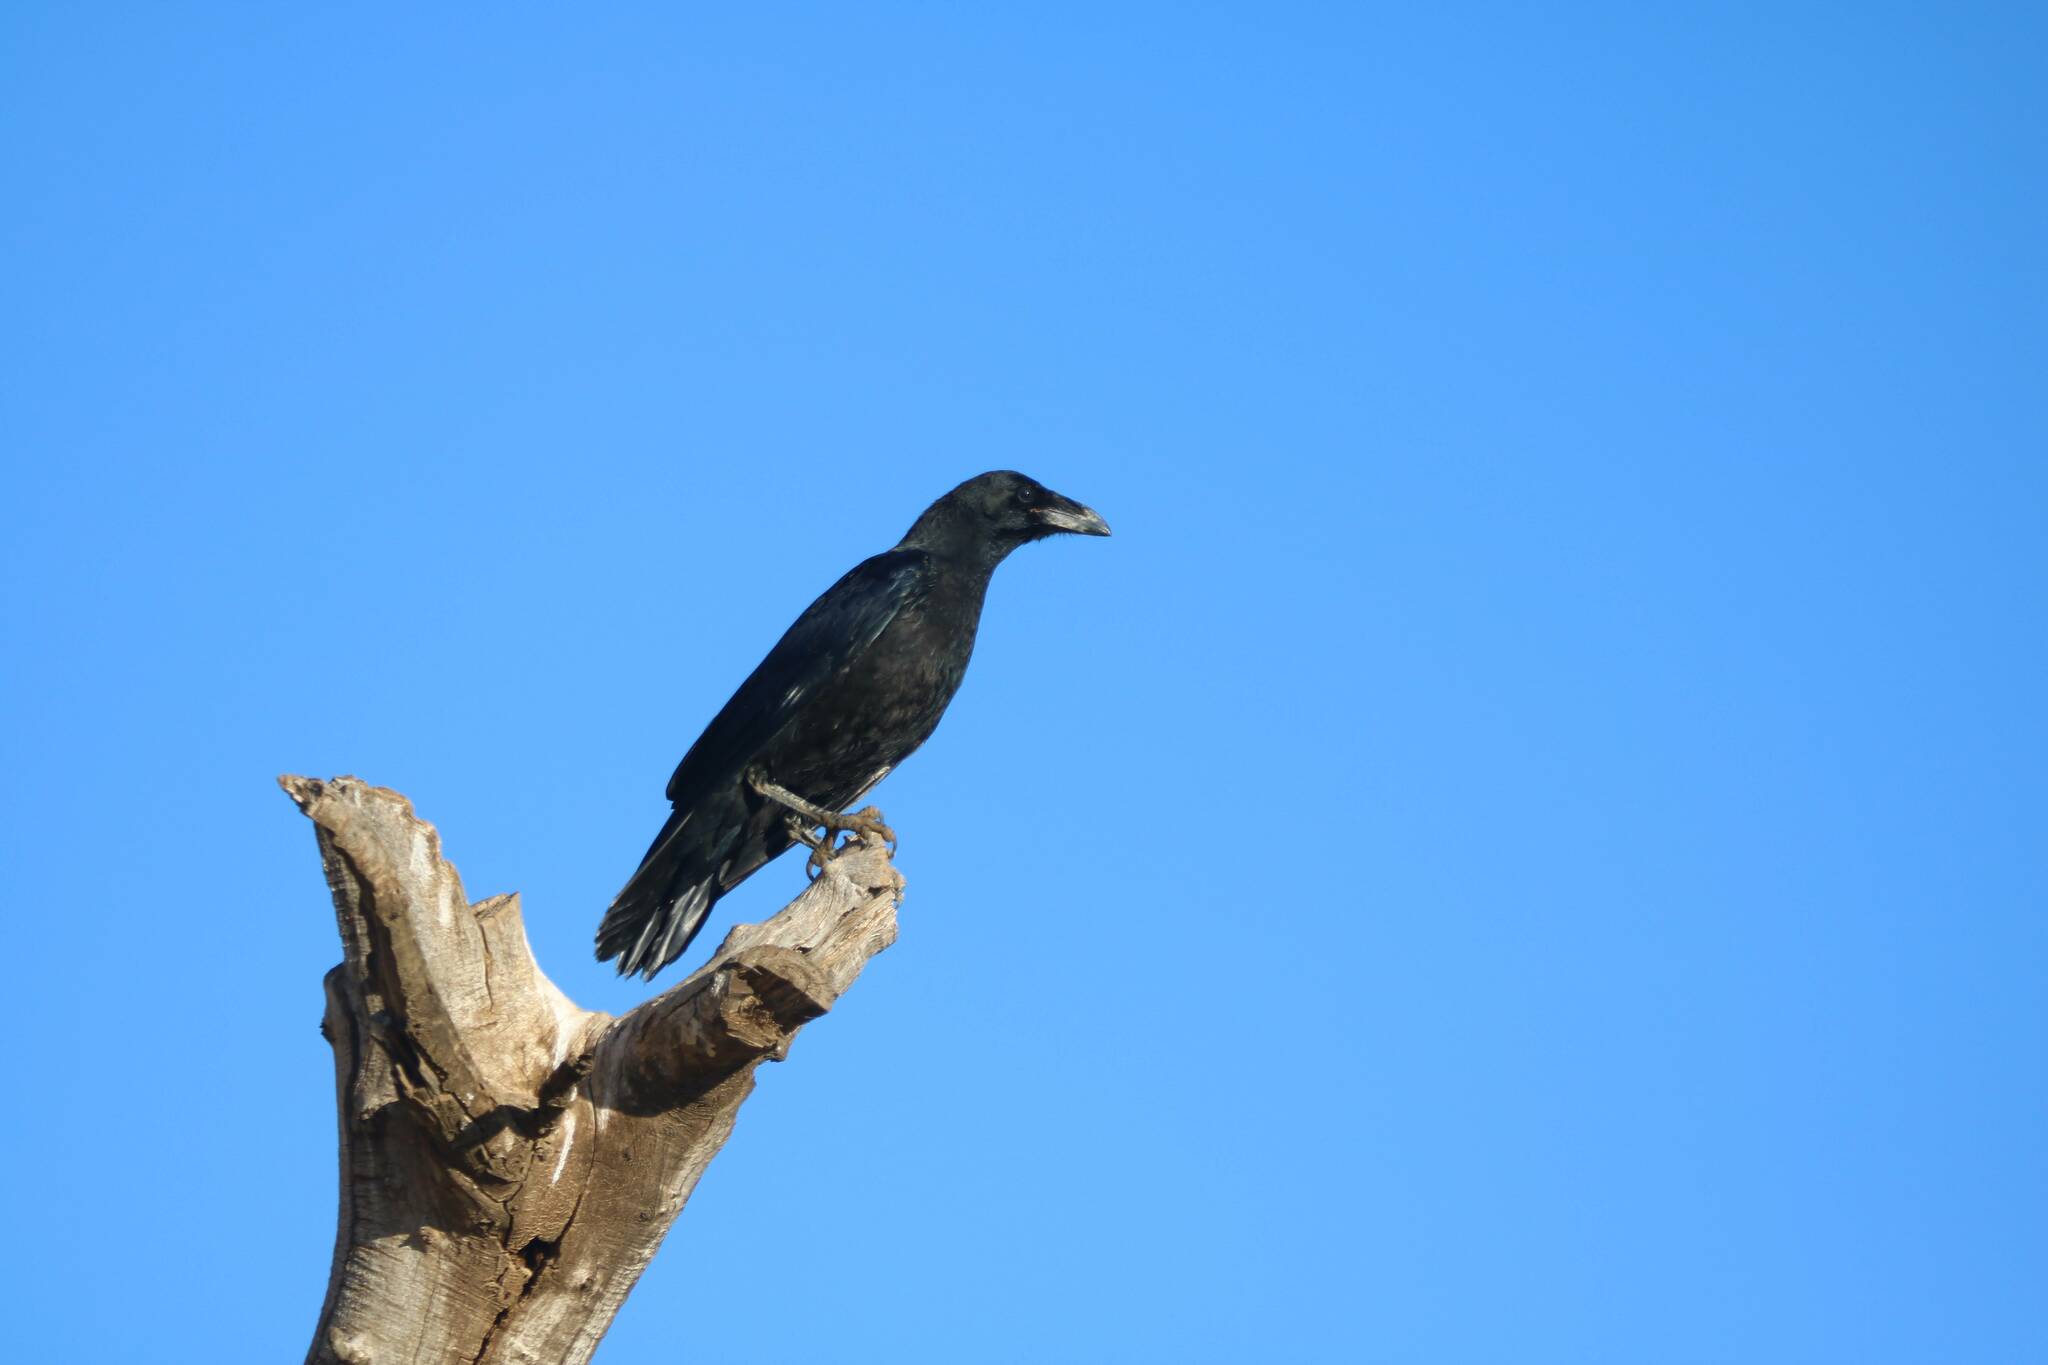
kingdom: Animalia
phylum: Chordata
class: Aves
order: Passeriformes
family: Corvidae
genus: Corvus
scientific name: Corvus corax
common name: Common raven
